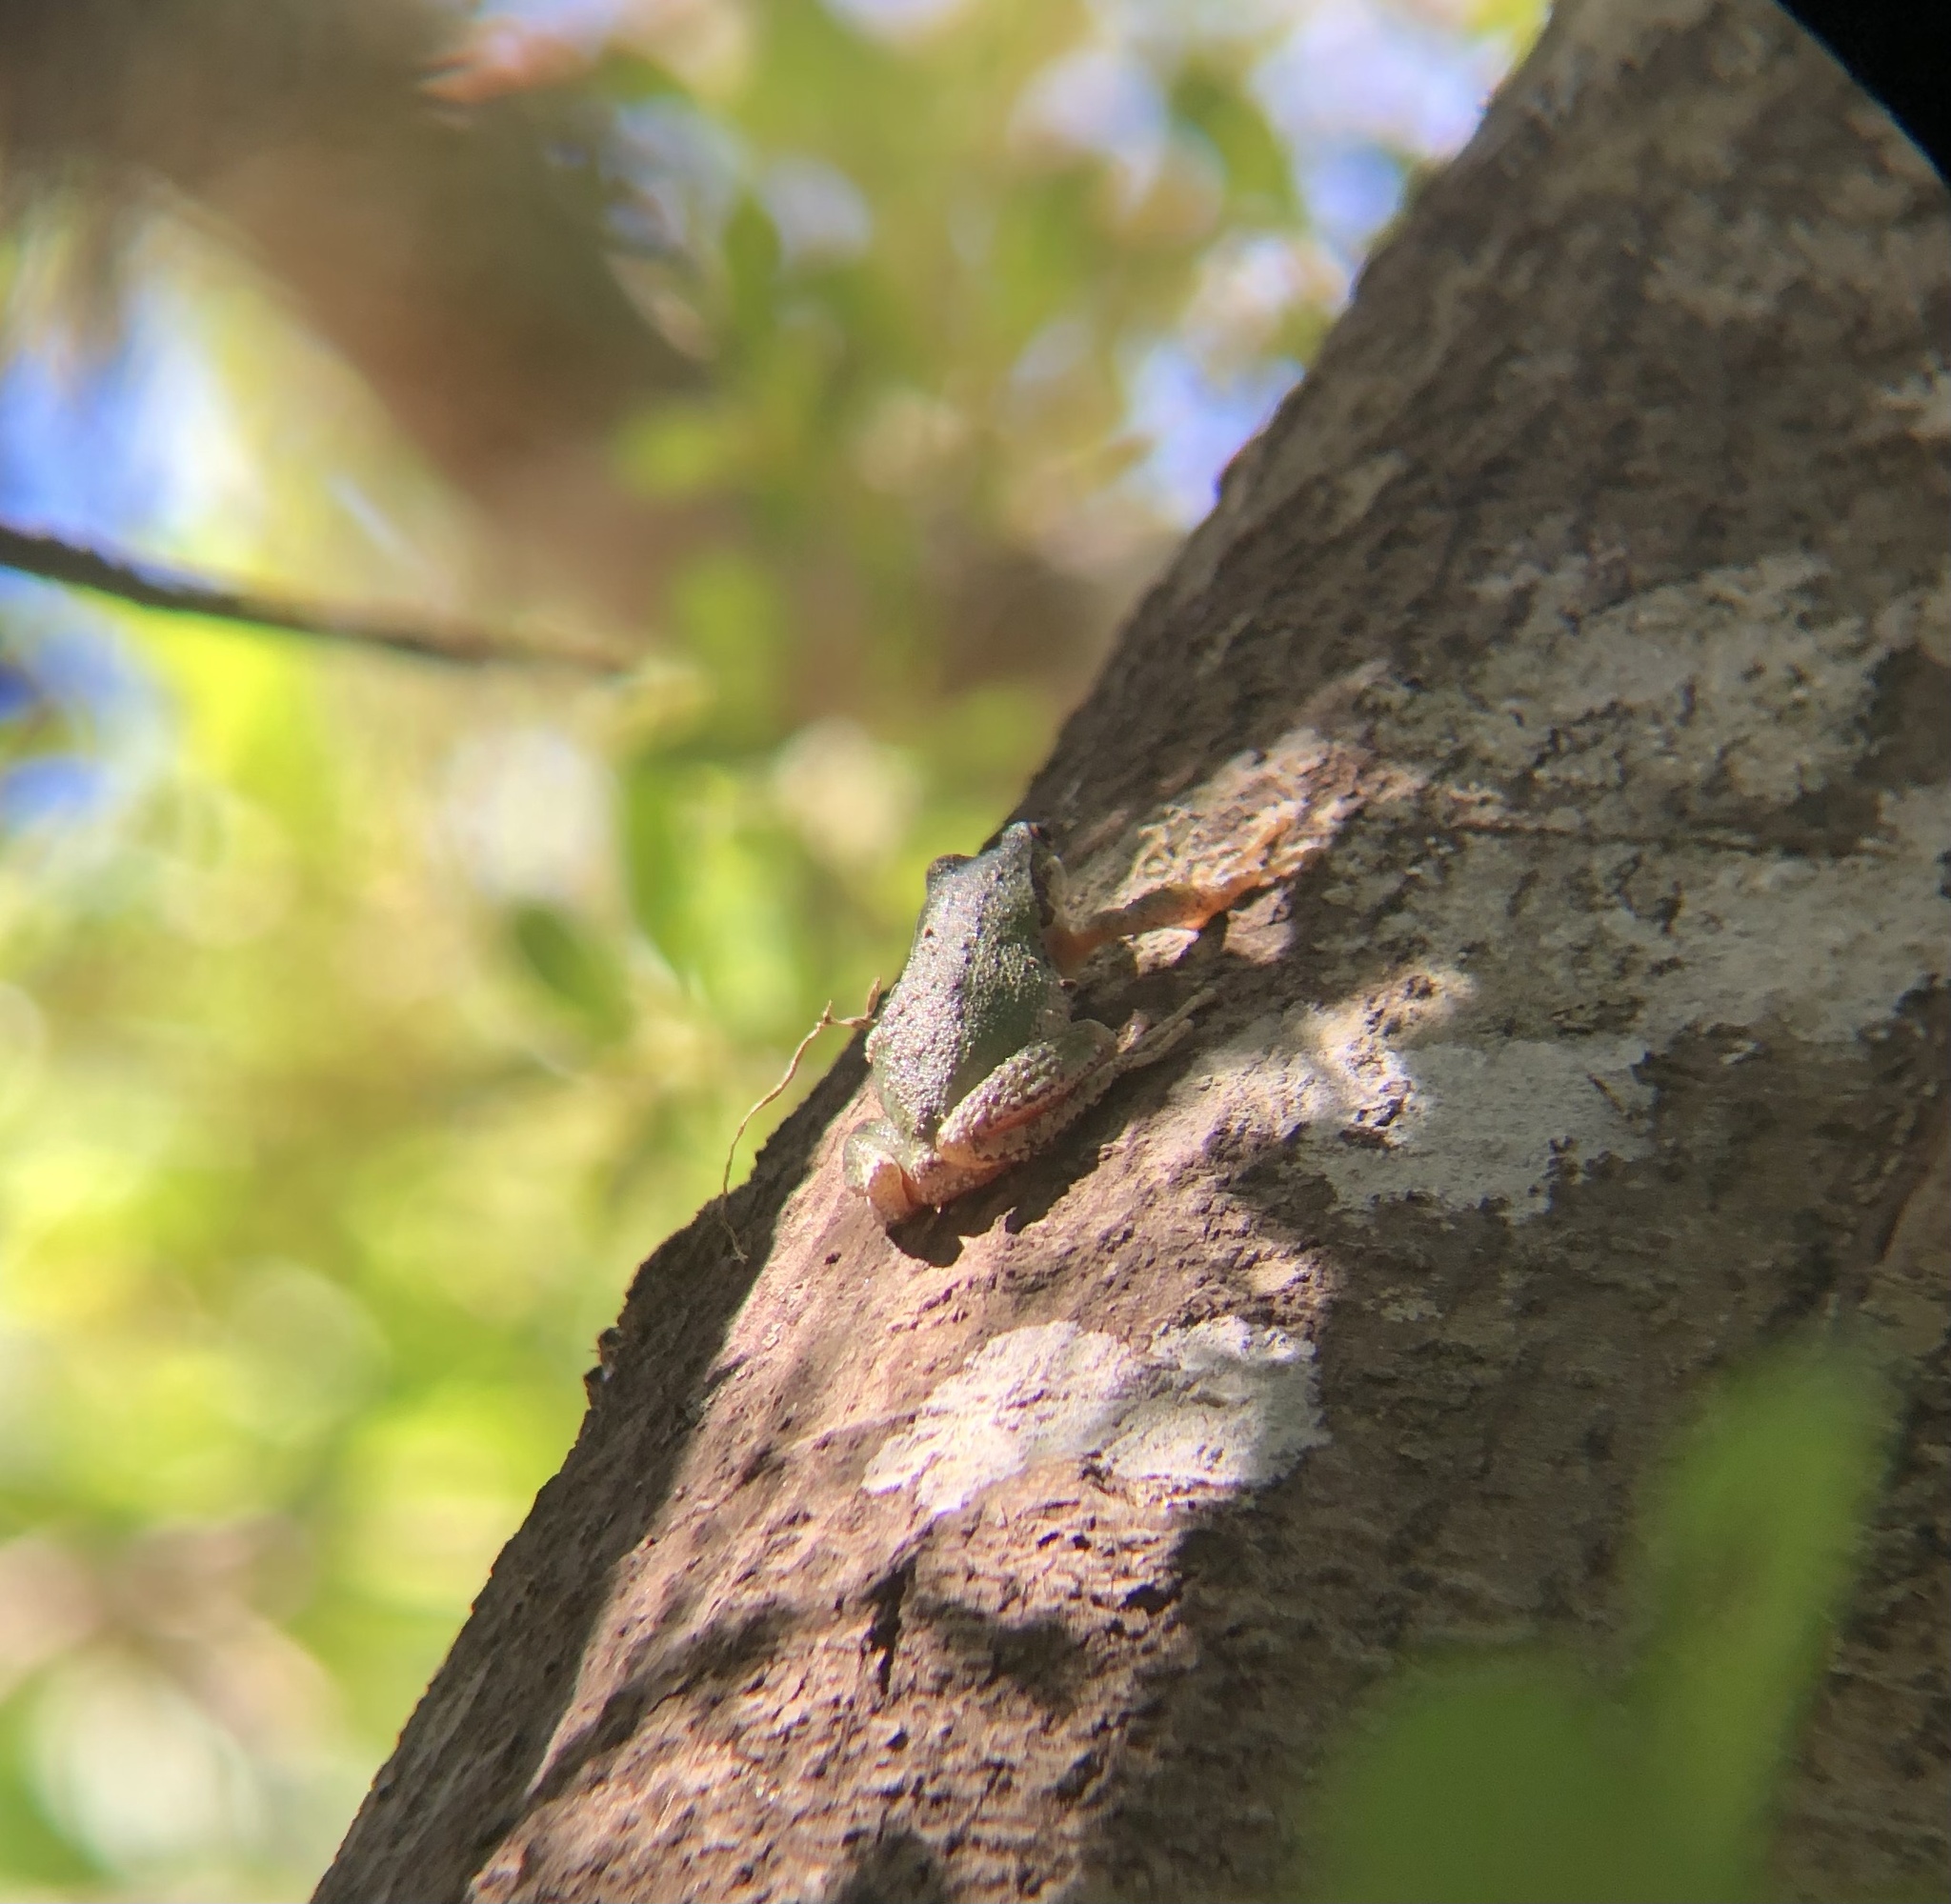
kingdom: Animalia
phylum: Chordata
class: Amphibia
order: Anura
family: Hylidae
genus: Pseudacris
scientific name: Pseudacris regilla
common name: Pacific chorus frog
